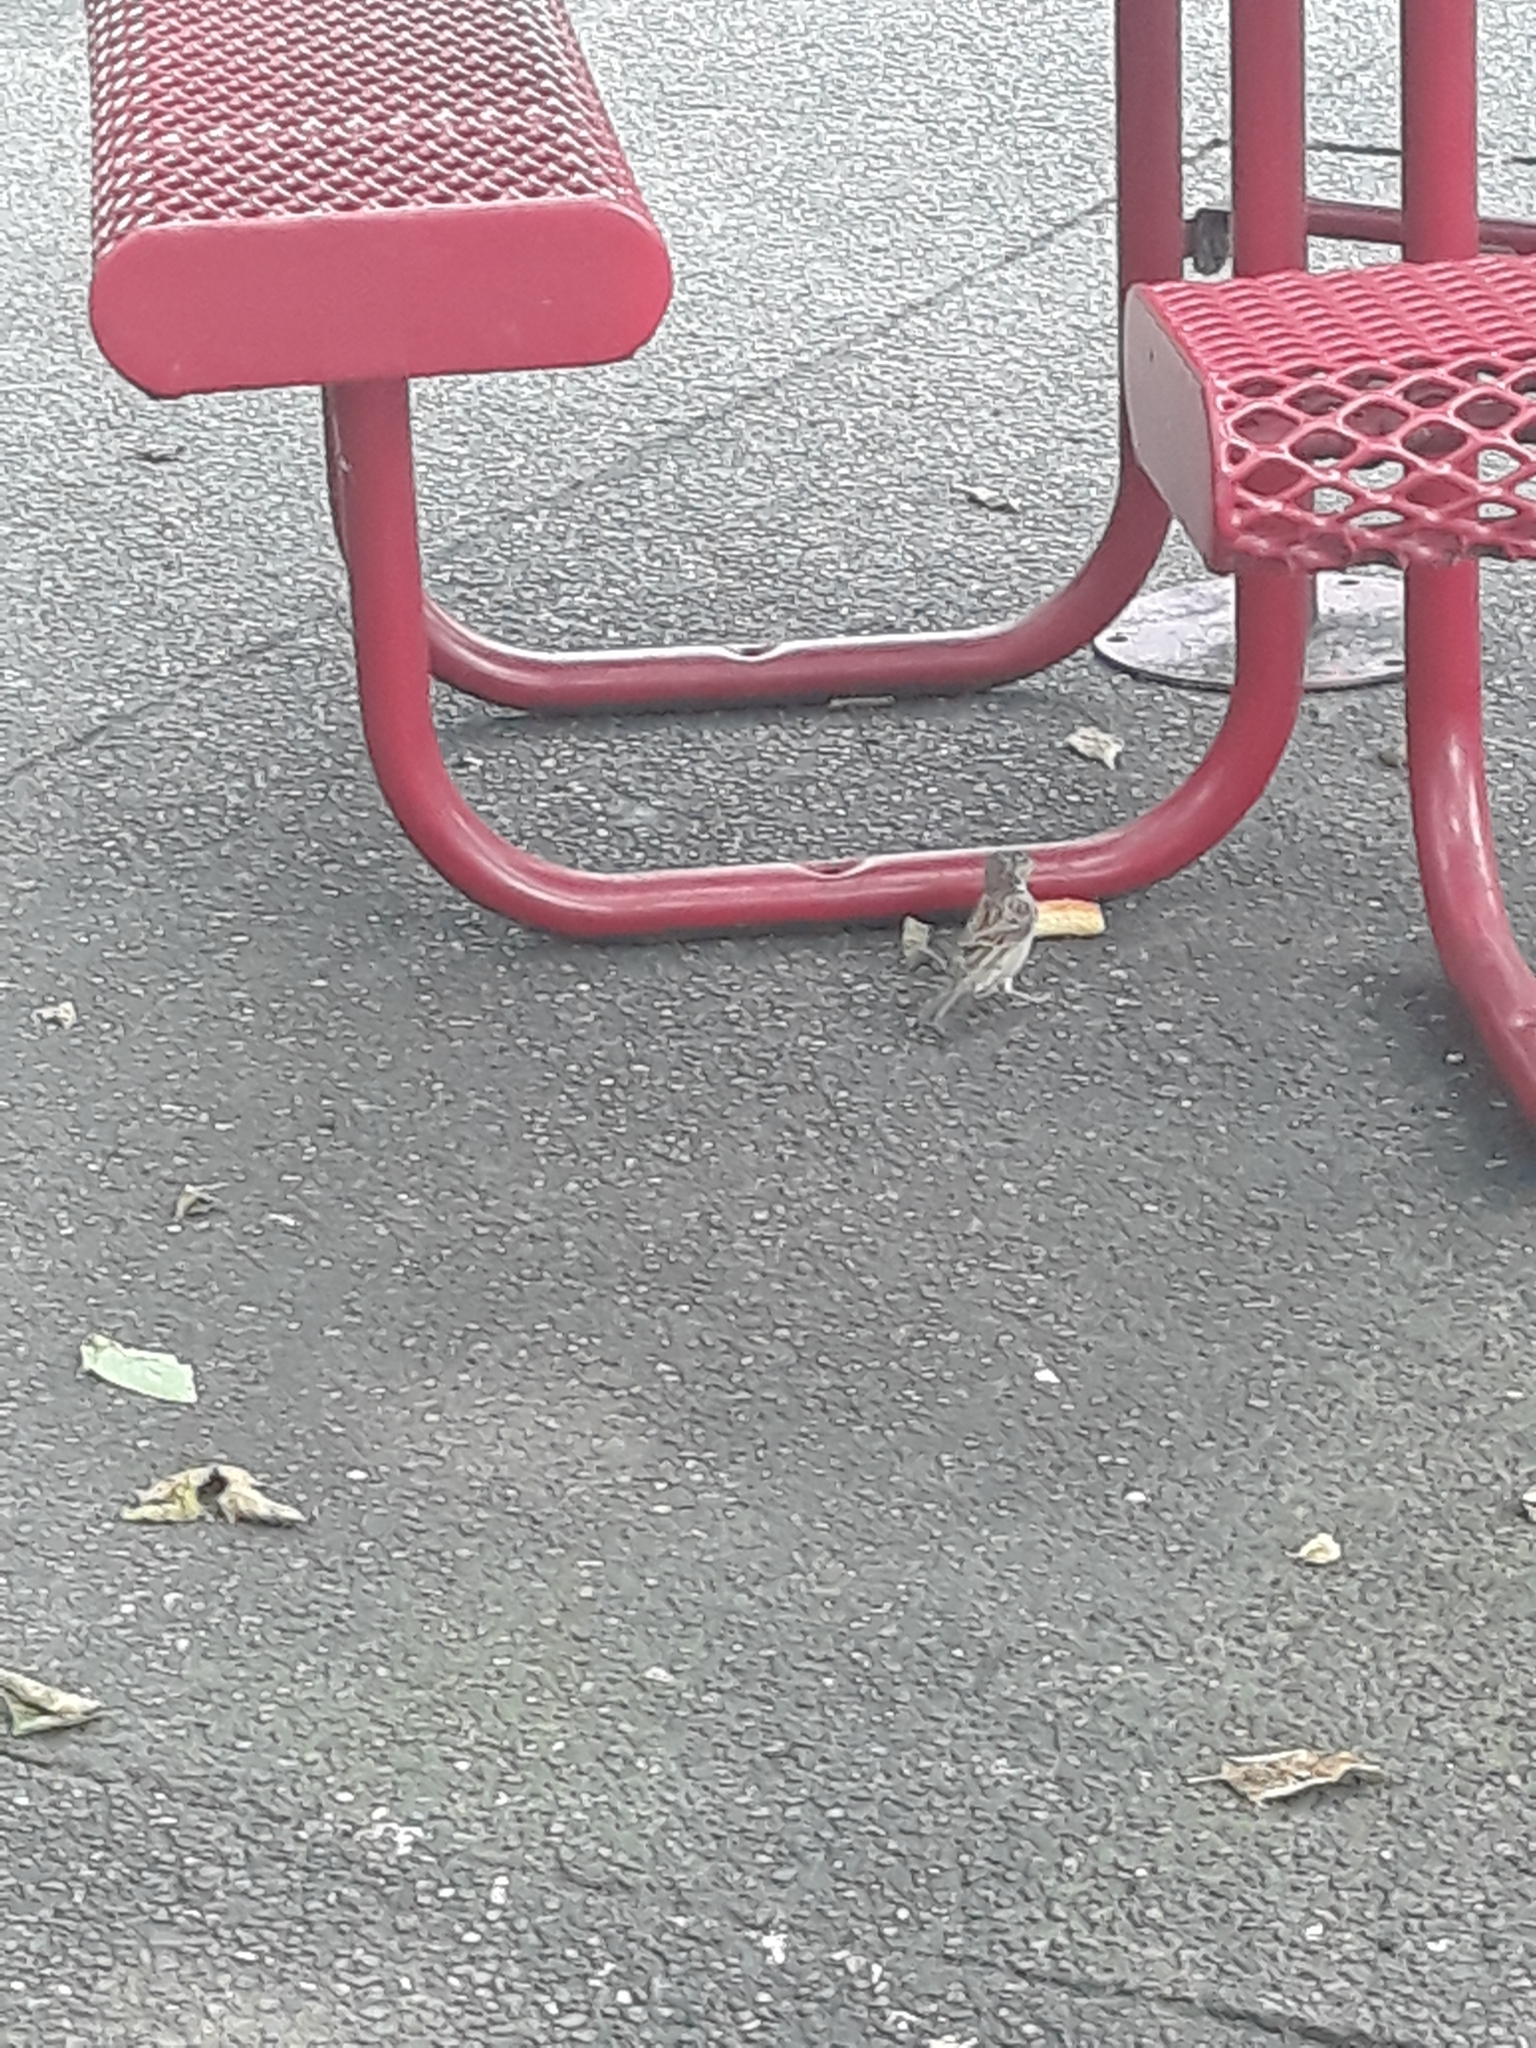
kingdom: Animalia
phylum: Chordata
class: Aves
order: Passeriformes
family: Passeridae
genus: Passer
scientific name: Passer domesticus
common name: House sparrow
